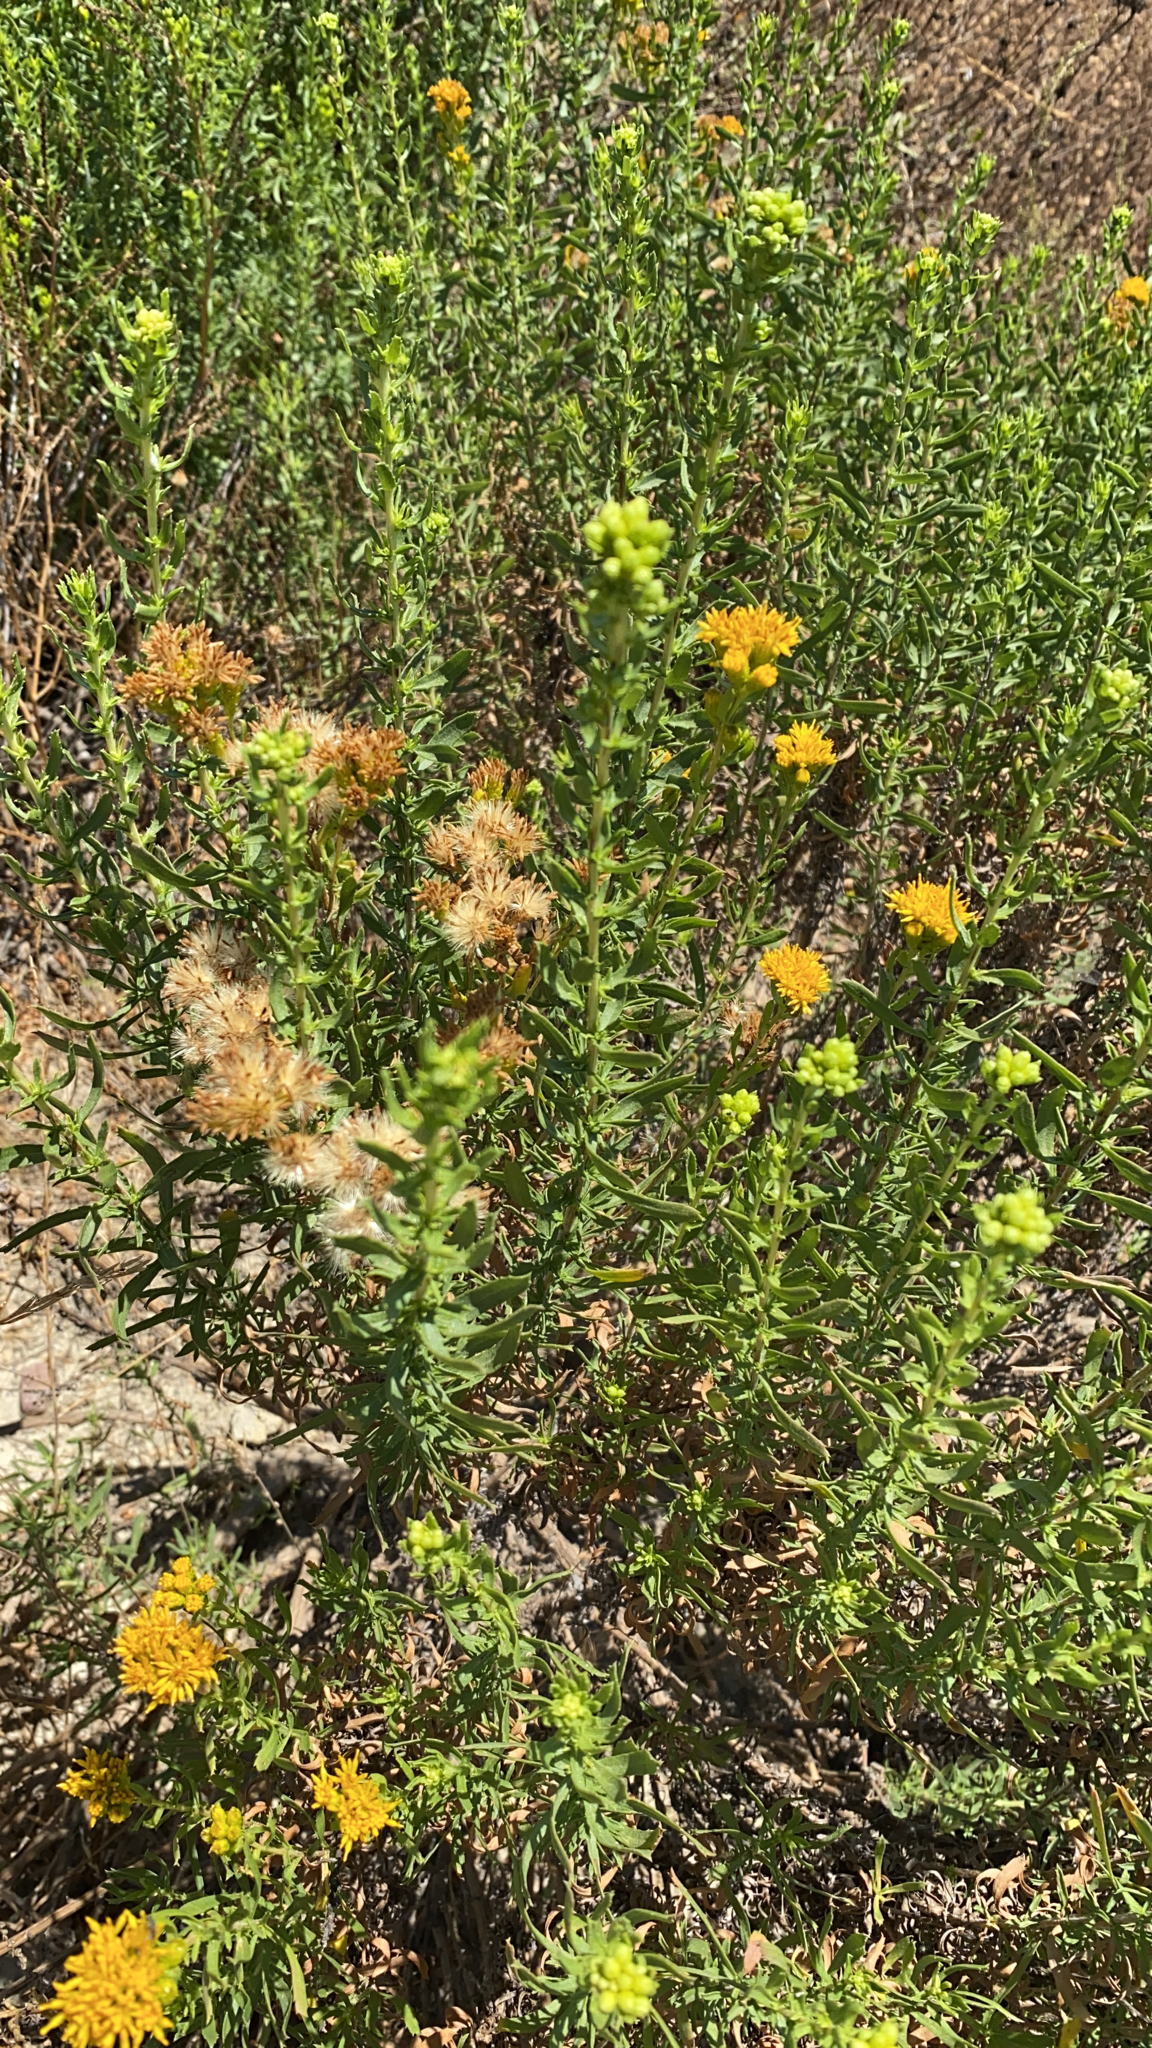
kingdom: Plantae
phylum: Tracheophyta
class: Magnoliopsida
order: Asterales
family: Asteraceae
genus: Isocoma
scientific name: Isocoma menziesii
